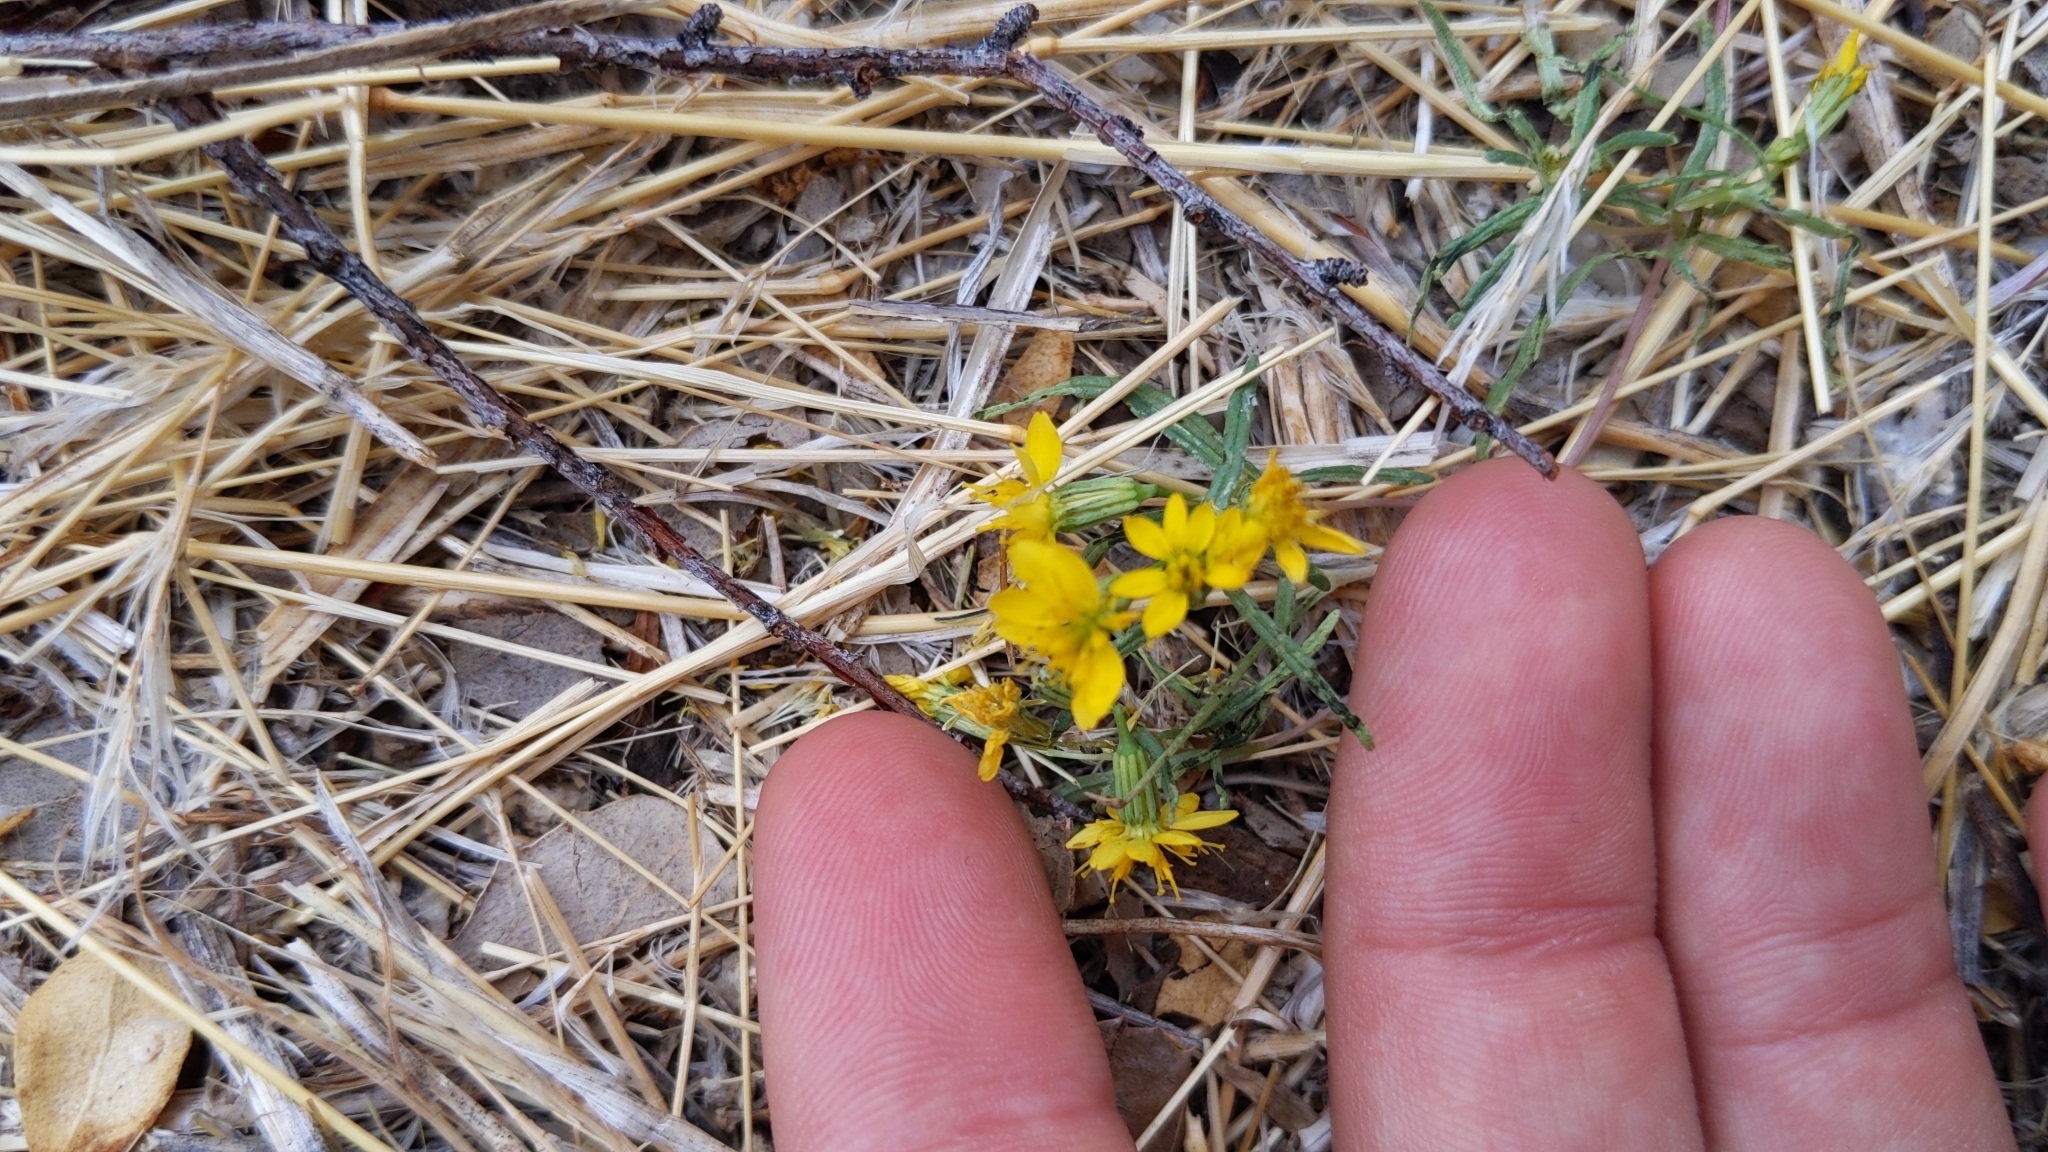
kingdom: Plantae
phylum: Tracheophyta
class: Magnoliopsida
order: Asterales
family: Asteraceae
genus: Pectis
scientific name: Pectis papposa
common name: Many-bristle chinchweed
